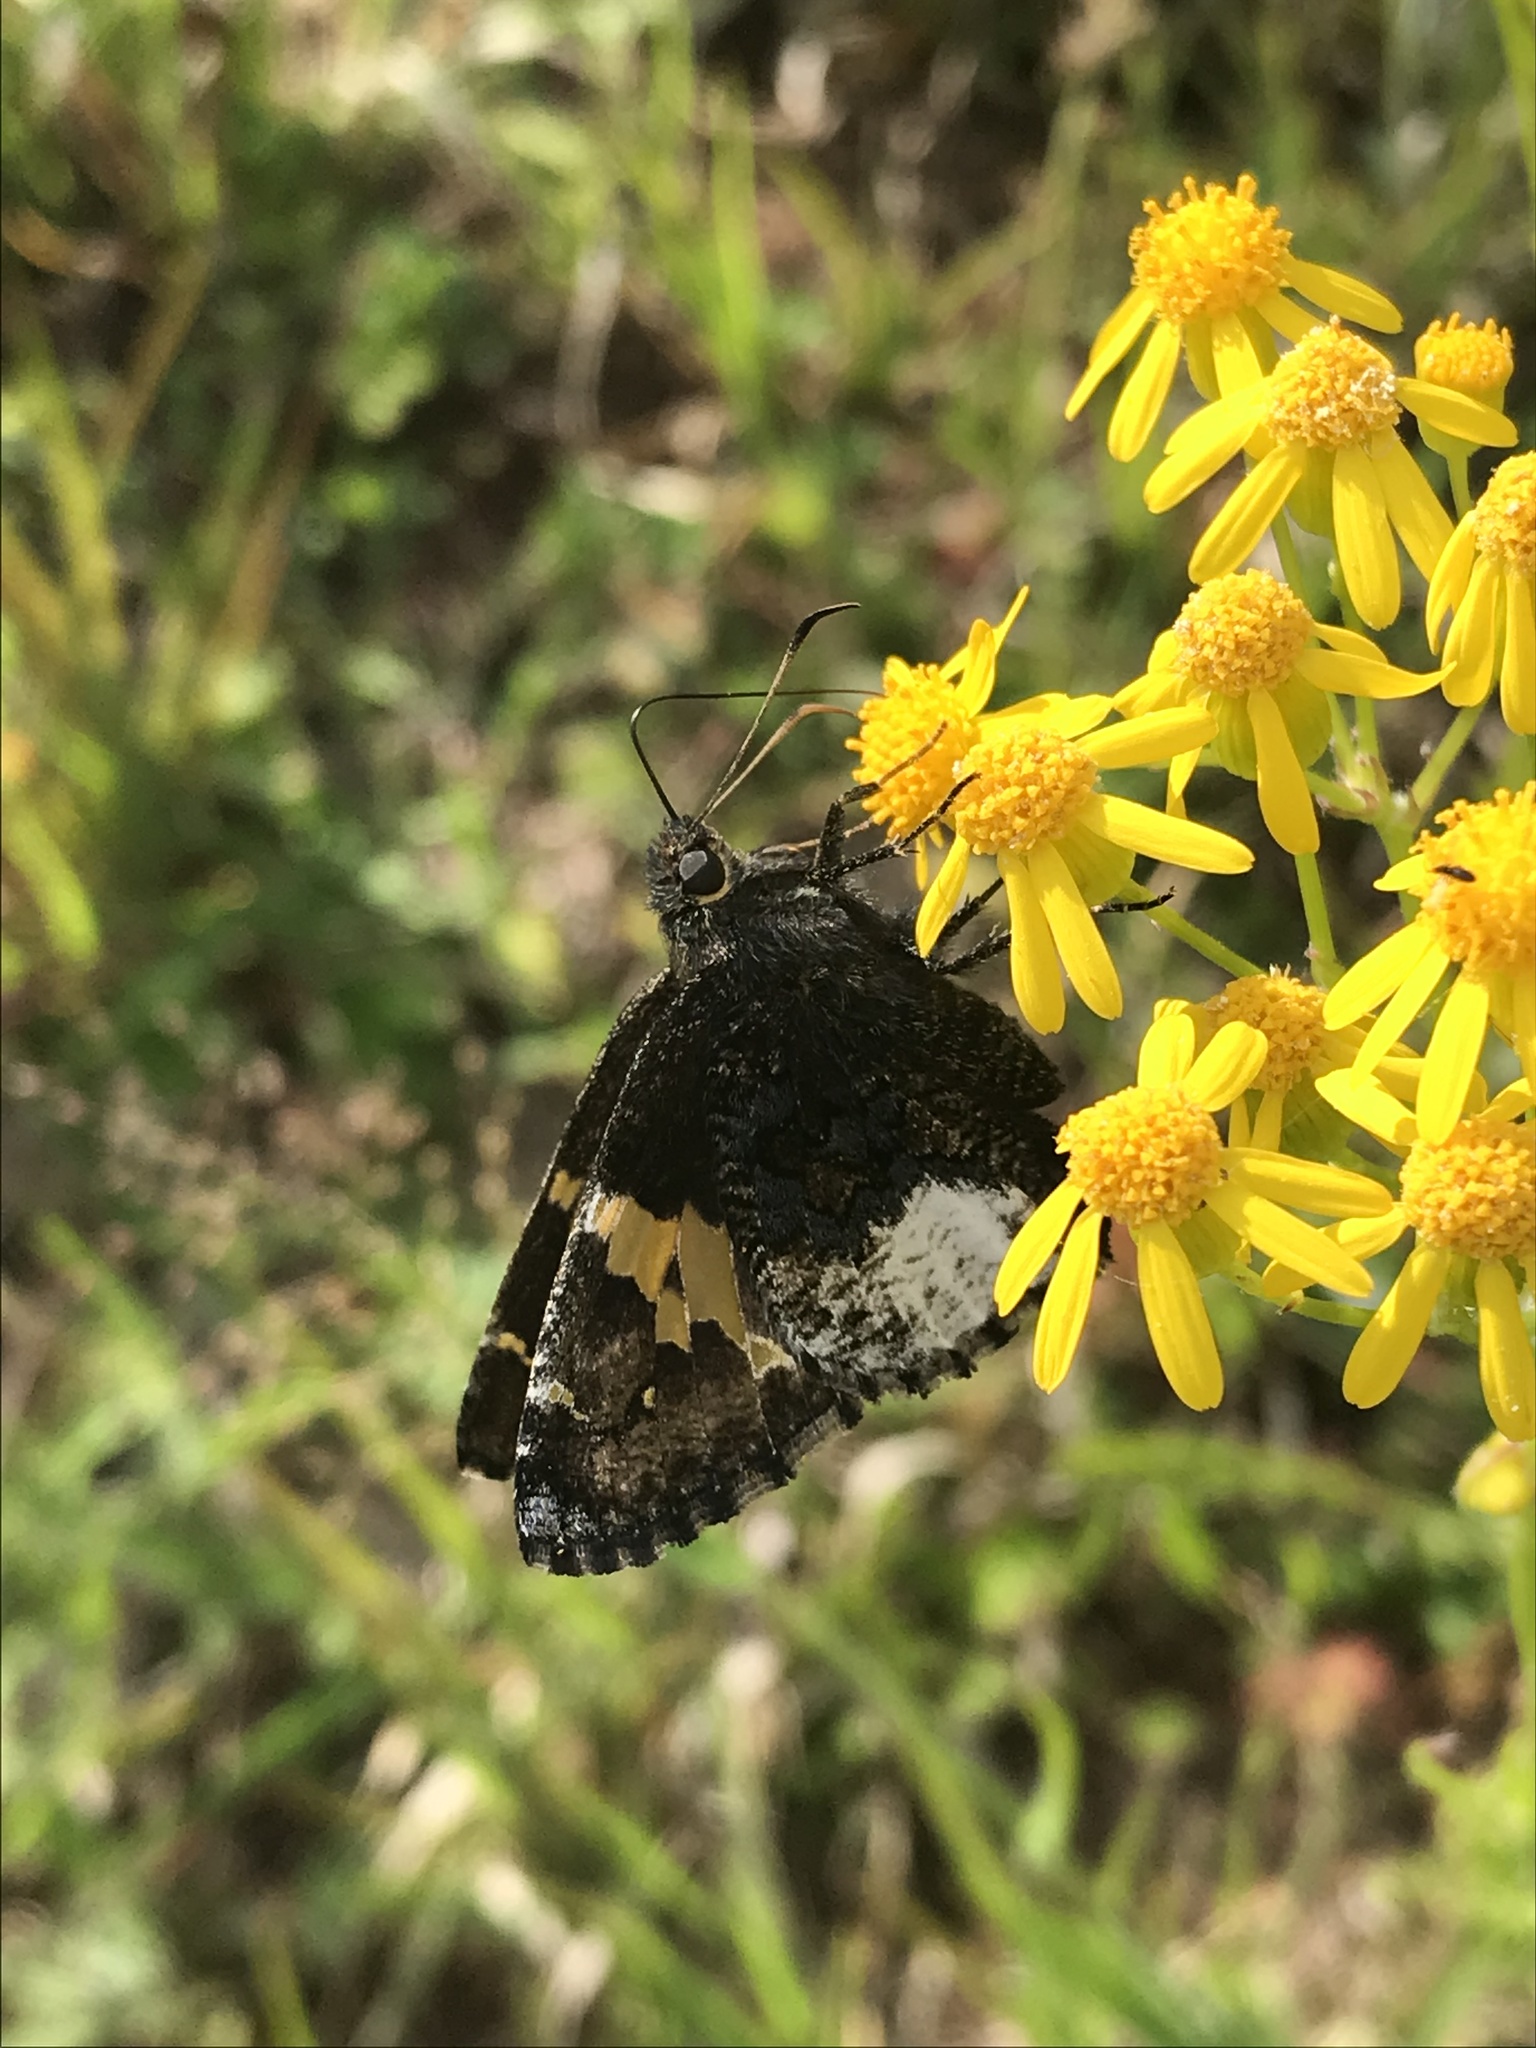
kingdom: Animalia
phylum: Arthropoda
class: Insecta
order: Lepidoptera
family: Hesperiidae
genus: Thorybes
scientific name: Thorybes lyciades
